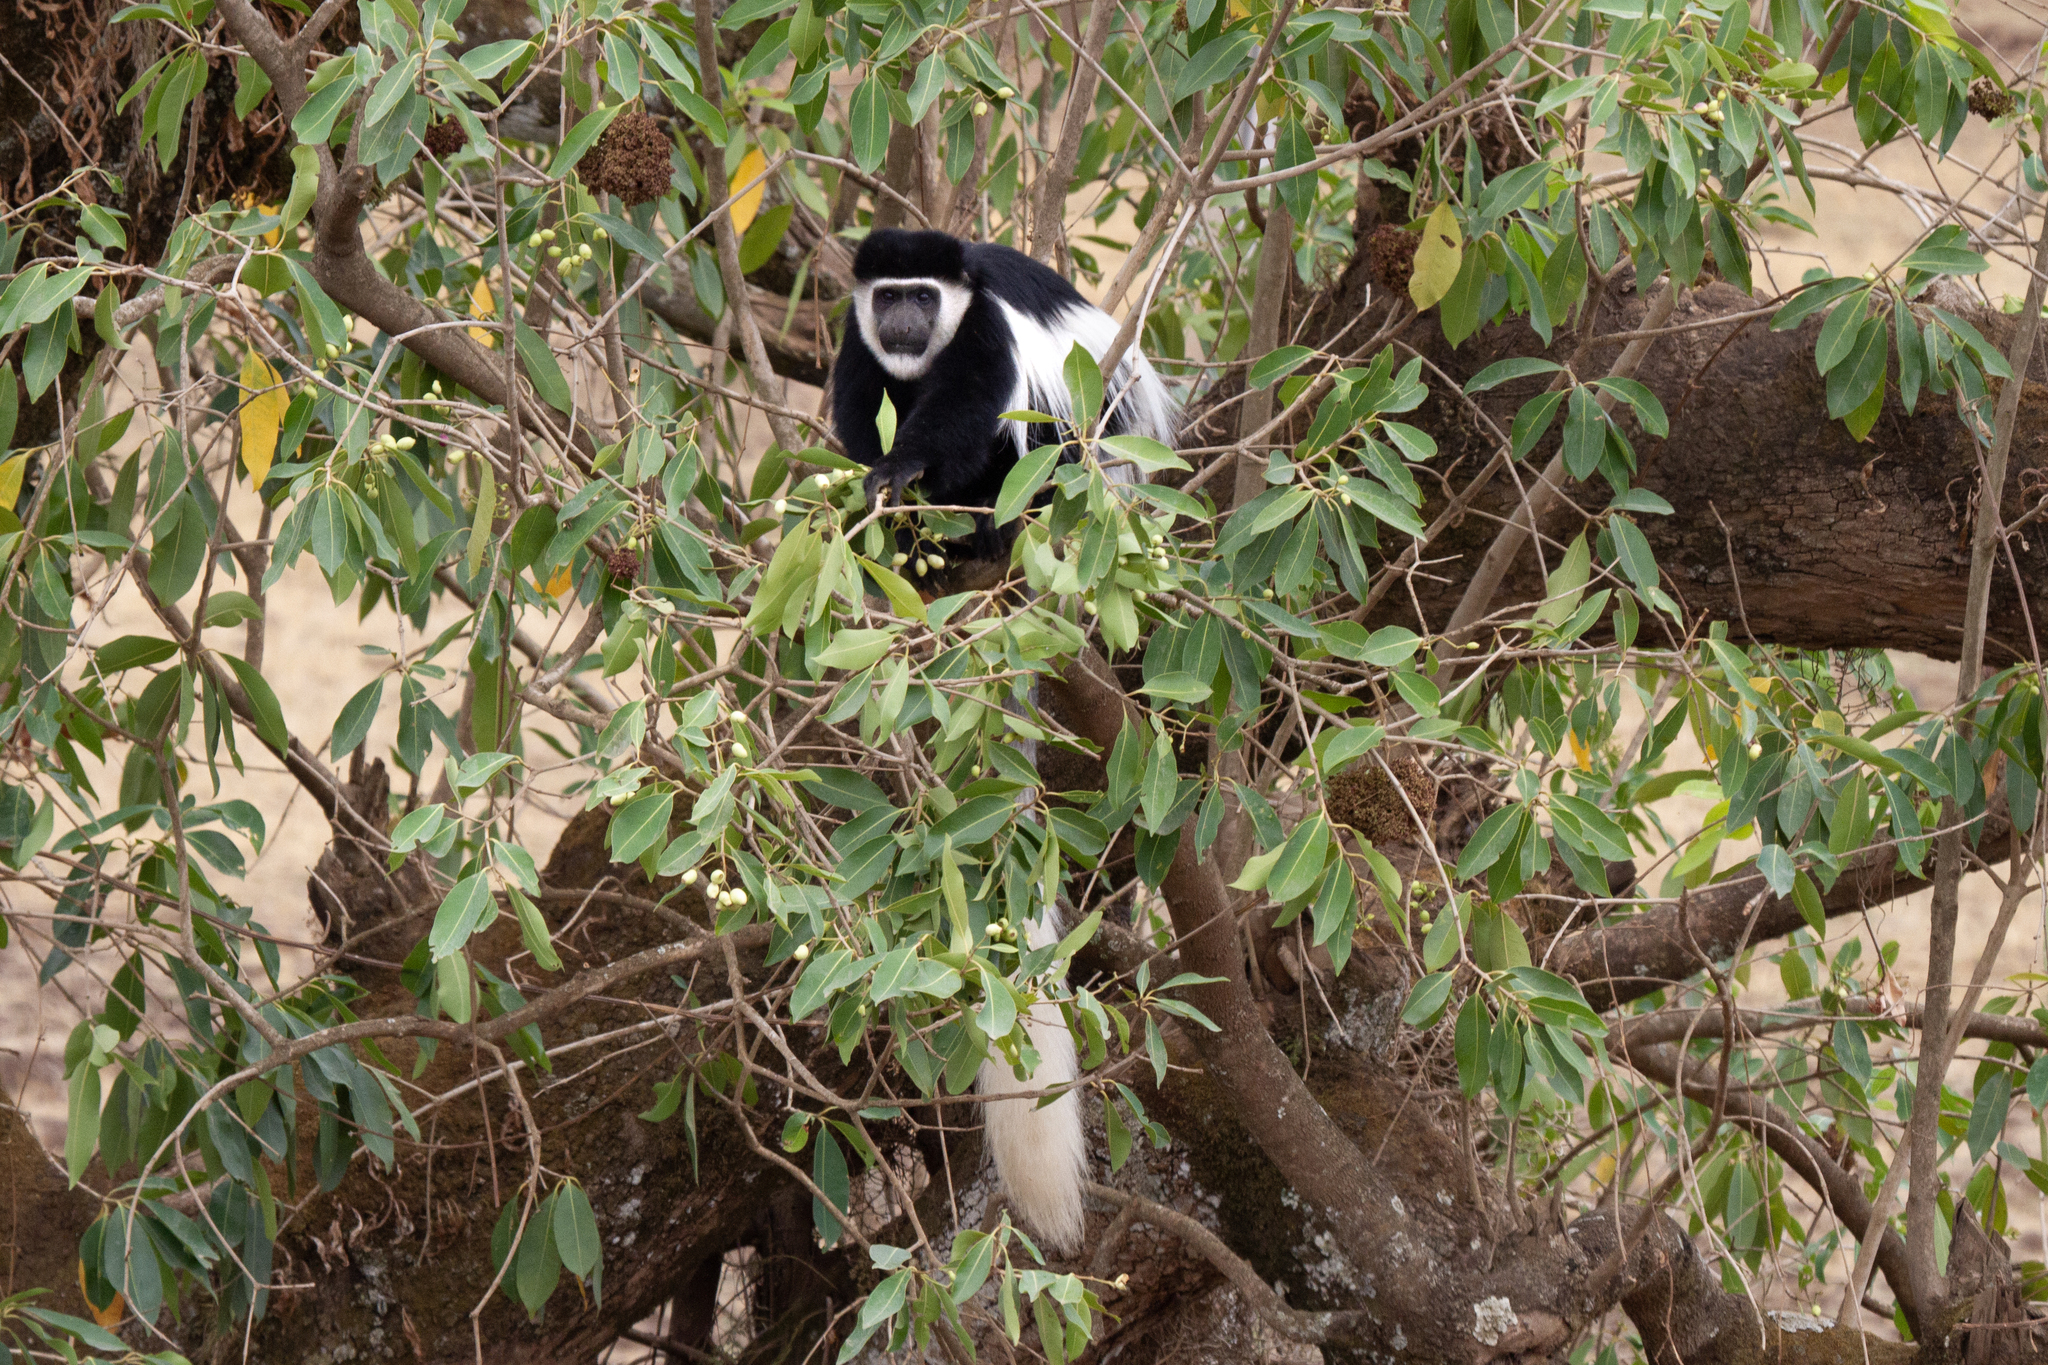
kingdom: Animalia
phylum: Chordata
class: Mammalia
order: Primates
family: Cercopithecidae
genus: Colobus
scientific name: Colobus guereza
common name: Mantled guereza
